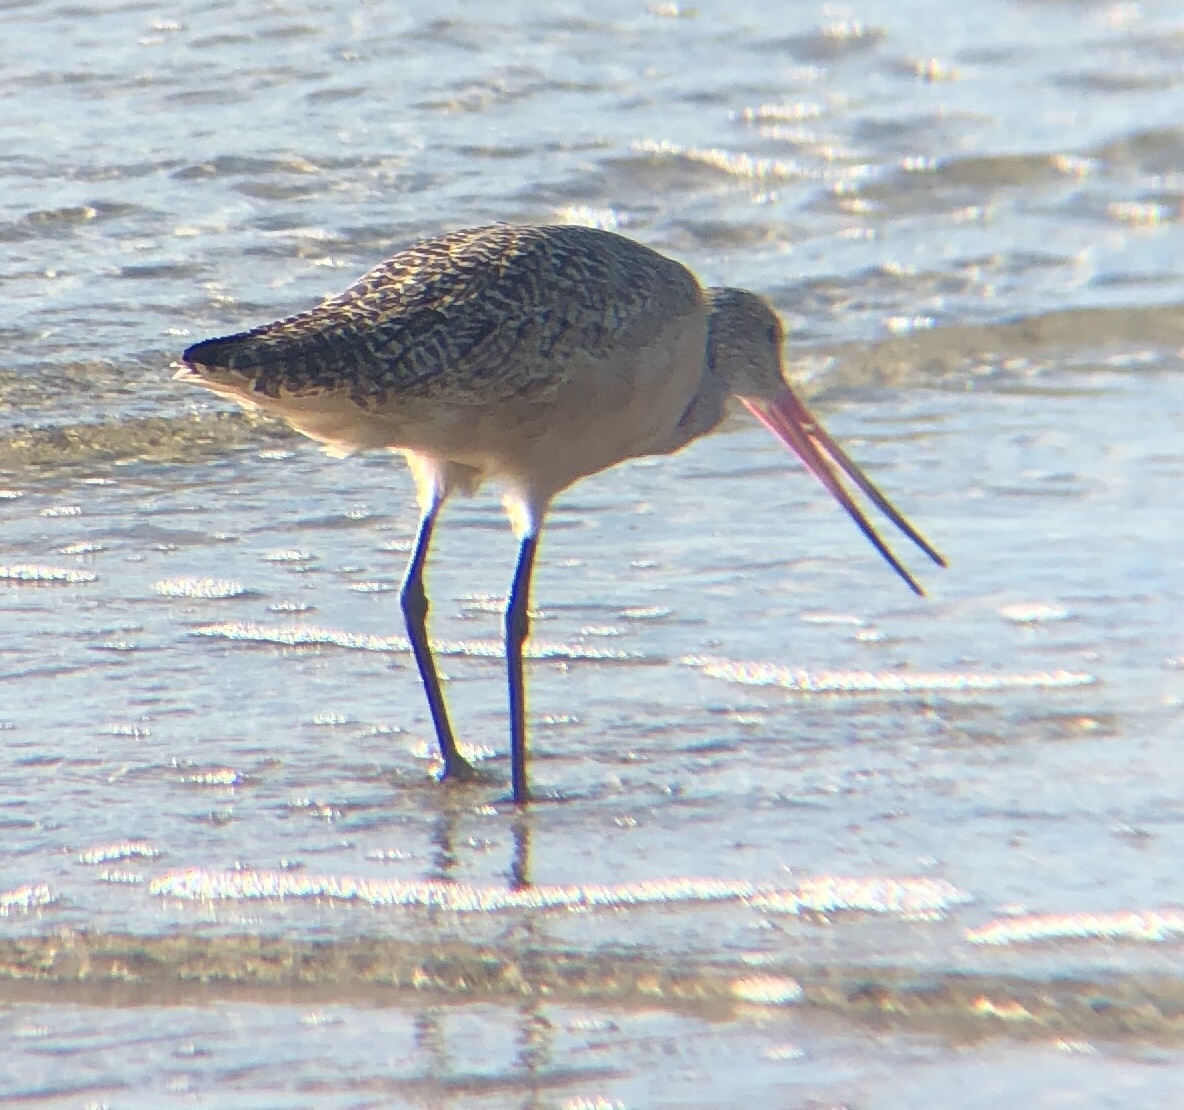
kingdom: Animalia
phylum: Chordata
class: Aves
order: Charadriiformes
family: Scolopacidae
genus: Limosa
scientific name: Limosa fedoa
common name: Marbled godwit
